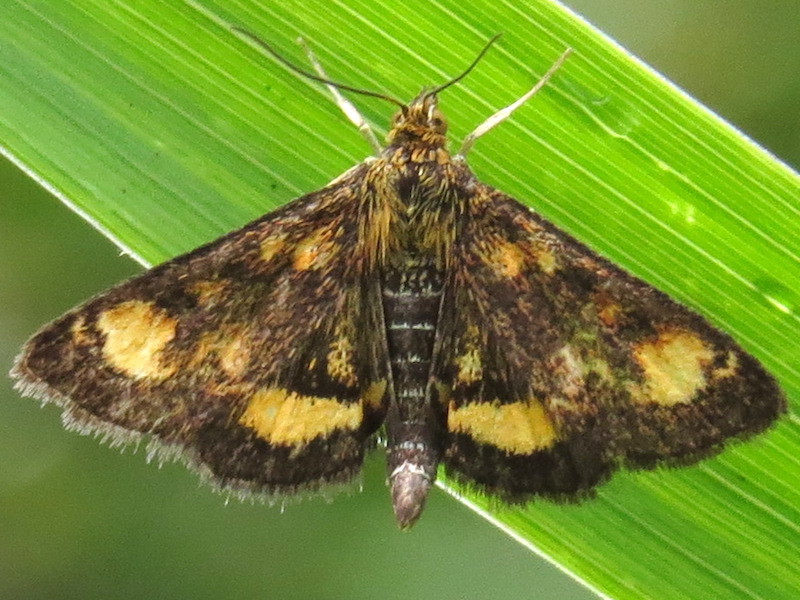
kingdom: Animalia
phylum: Arthropoda
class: Insecta
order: Lepidoptera
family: Crambidae
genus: Pyrausta
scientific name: Pyrausta orphisalis
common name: Orange mint moth
